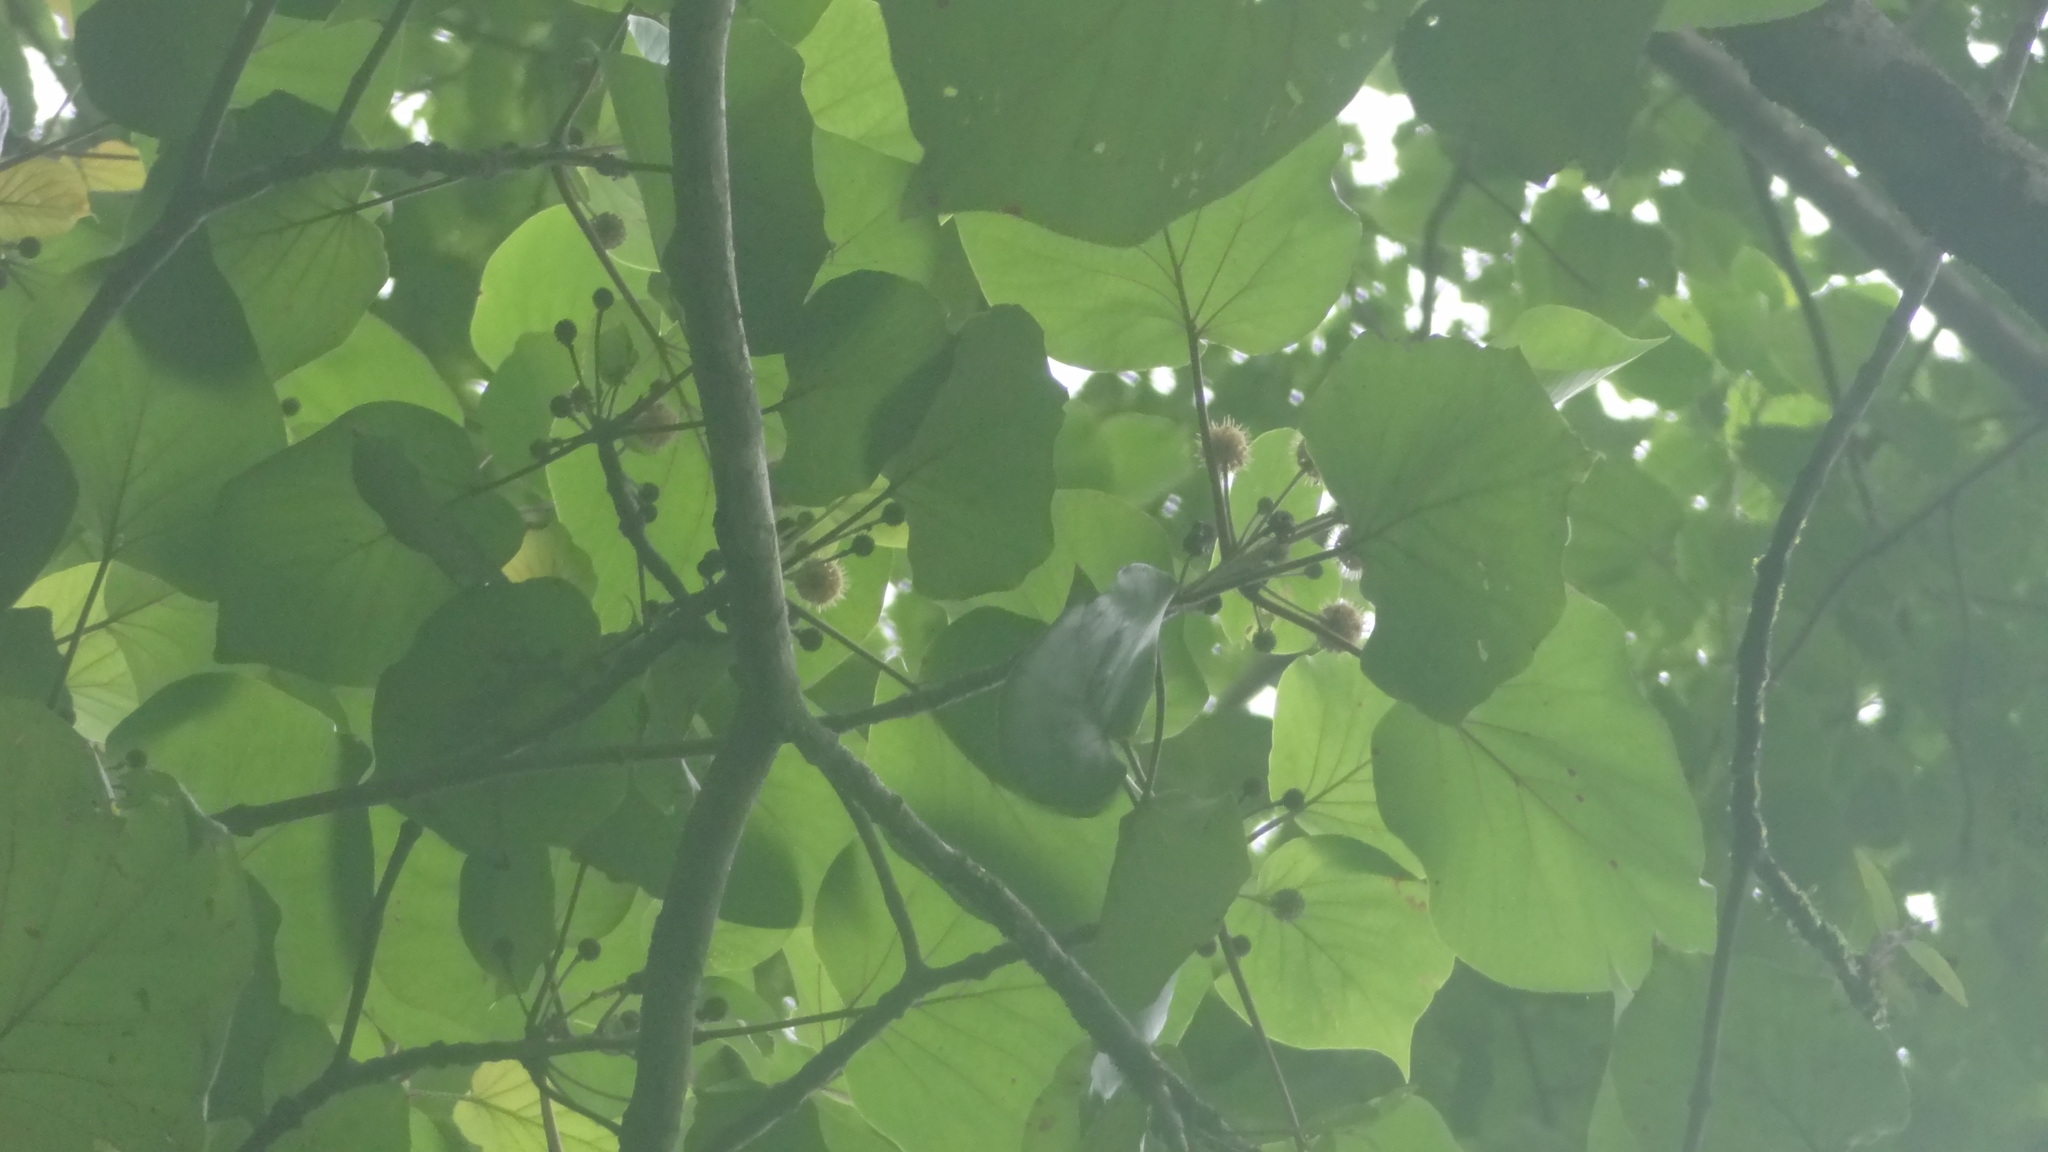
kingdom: Plantae
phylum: Tracheophyta
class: Magnoliopsida
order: Gentianales
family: Rubiaceae
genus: Adina
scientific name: Adina cordifolia
